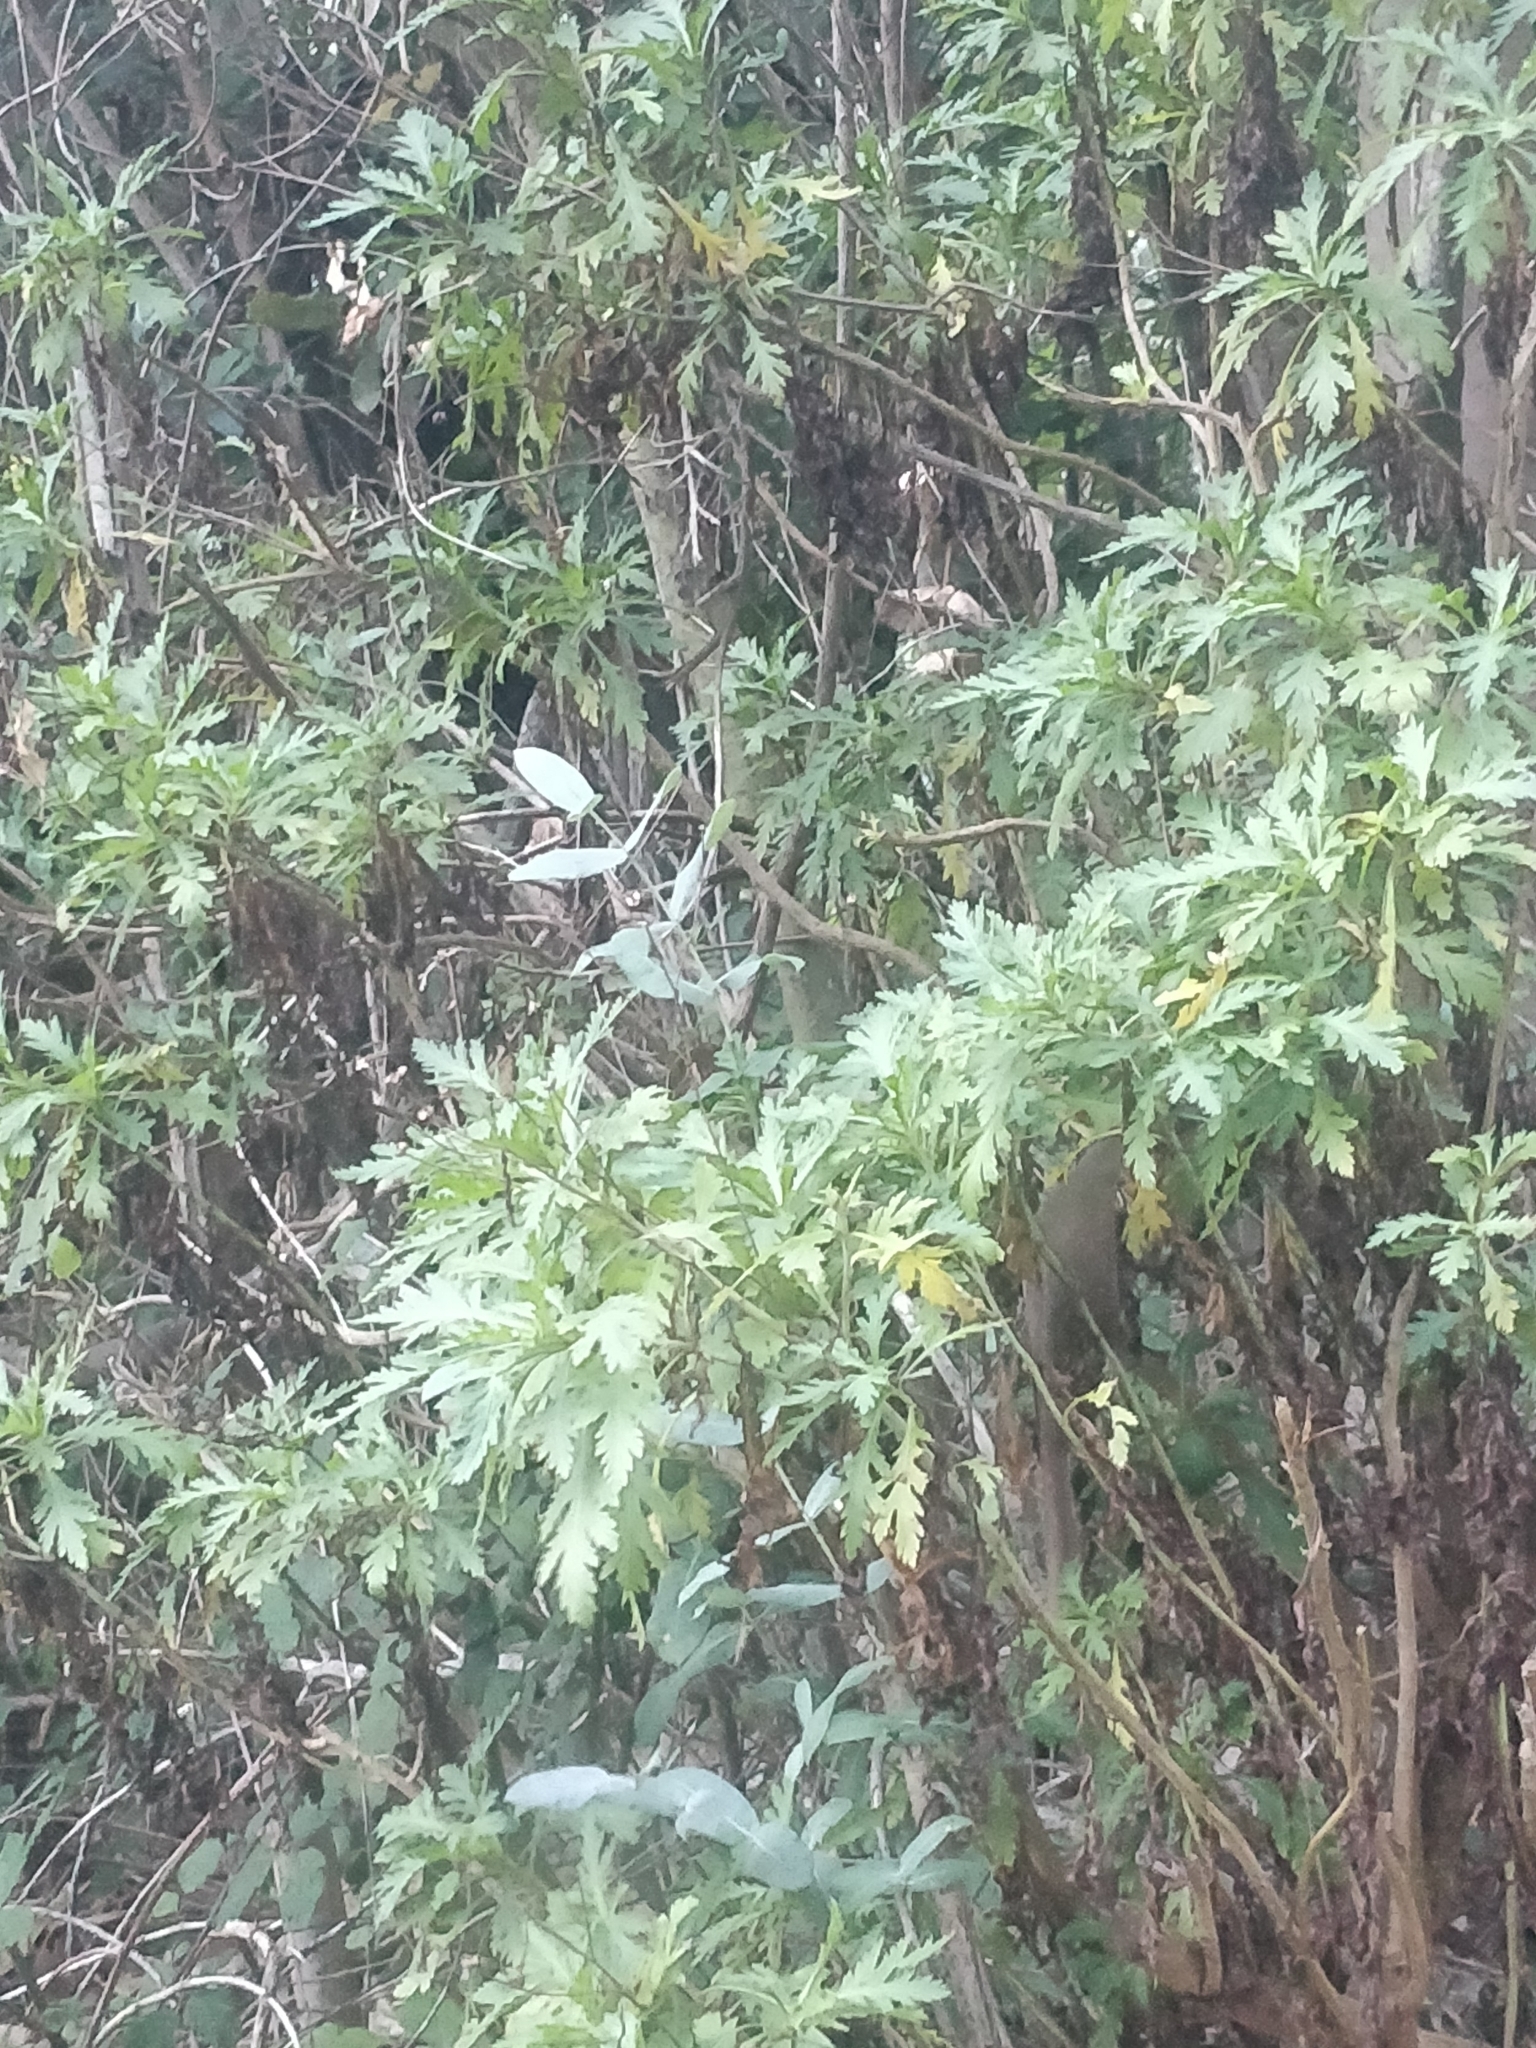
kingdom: Plantae
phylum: Tracheophyta
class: Magnoliopsida
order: Asterales
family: Asteraceae
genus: Argyranthemum
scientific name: Argyranthemum pinnatifidum
